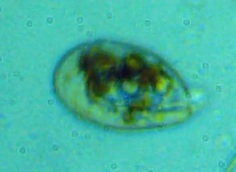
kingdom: Chromista
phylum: Ciliophora
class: Oligohymenophorea
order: Peniculida
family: Lembadionidae
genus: Lembadion
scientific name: Lembadion lucens
